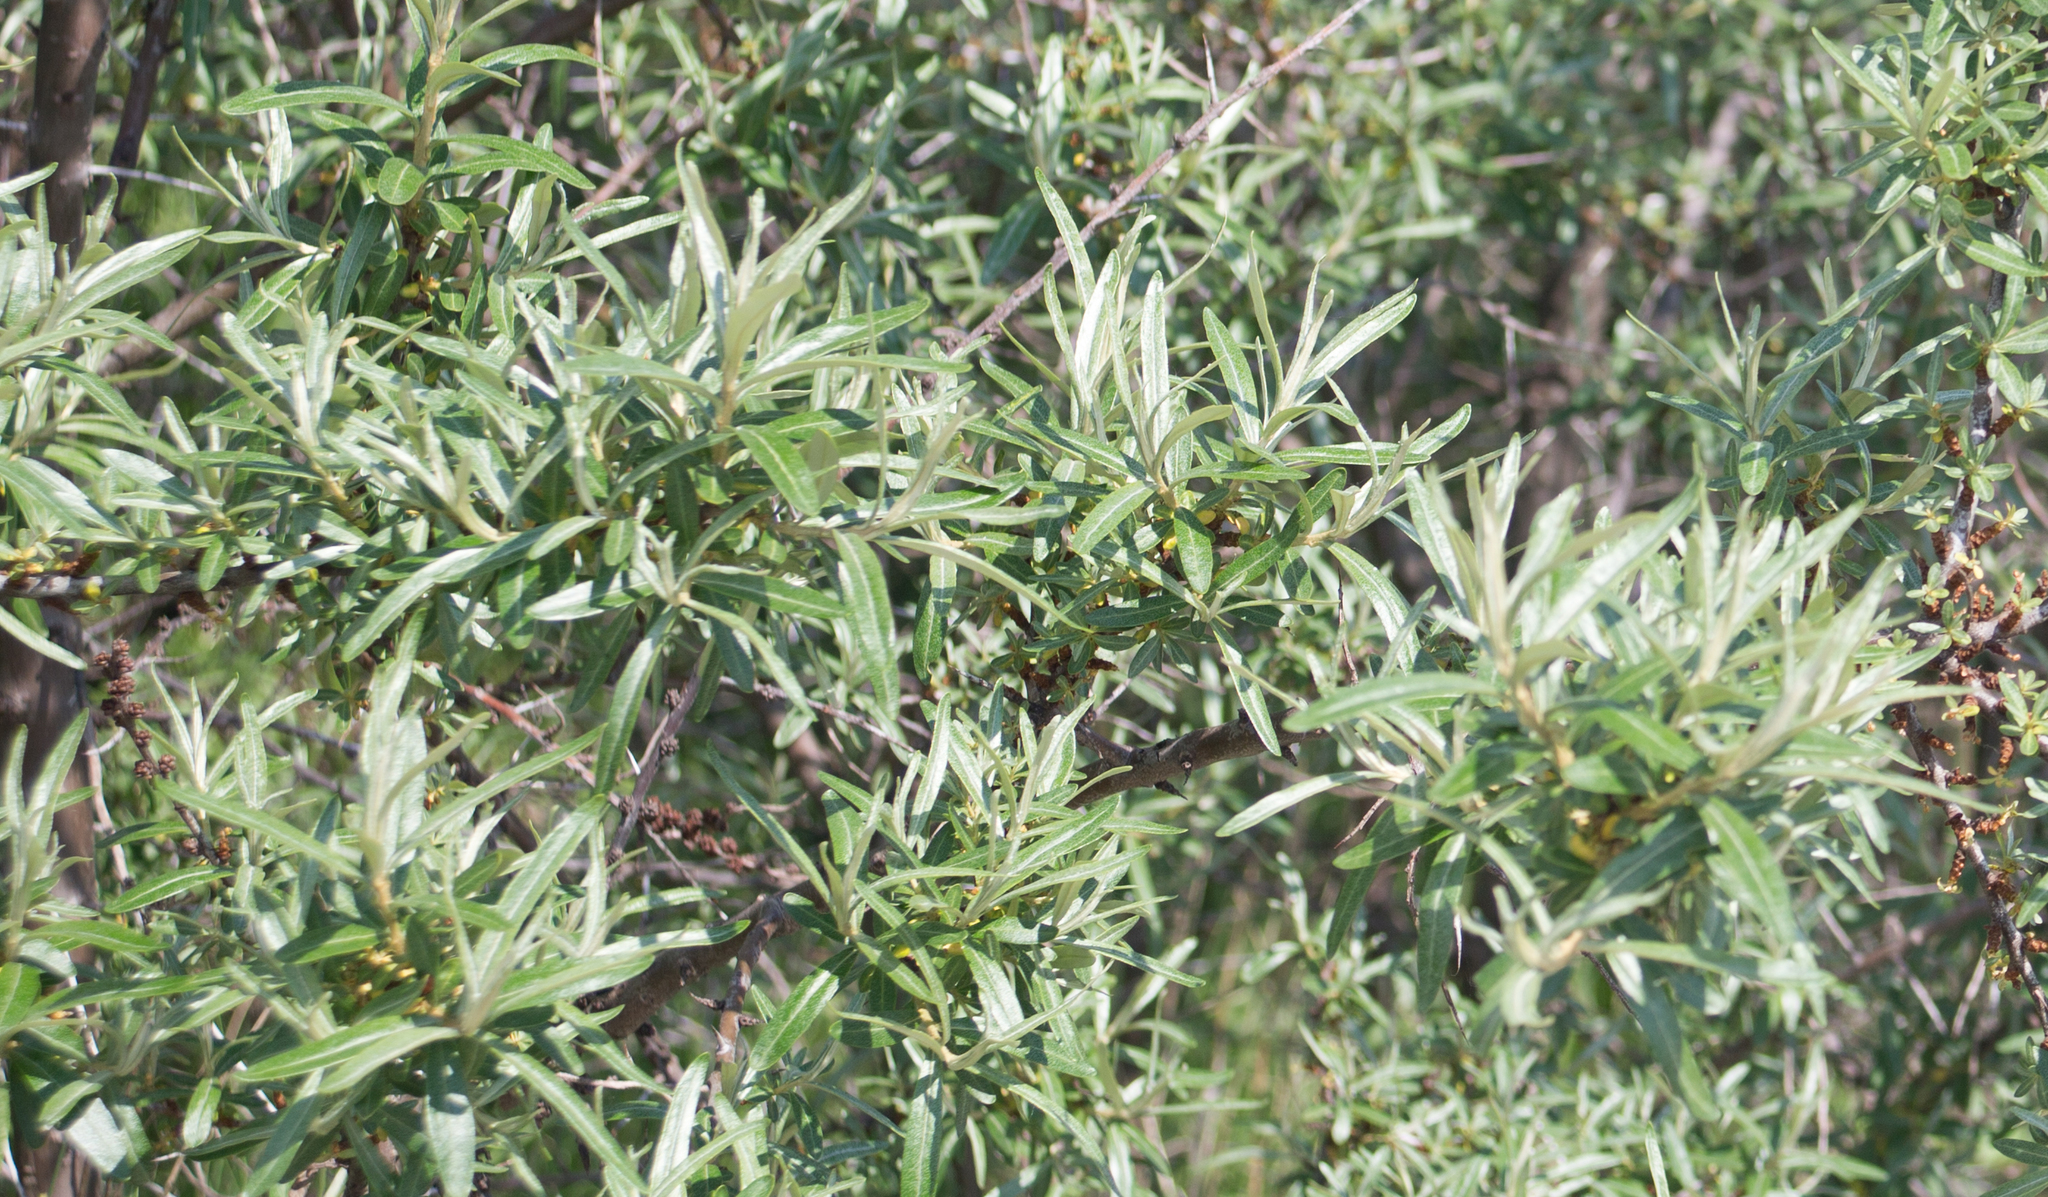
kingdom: Plantae
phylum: Tracheophyta
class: Magnoliopsida
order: Rosales
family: Elaeagnaceae
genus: Hippophae
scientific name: Hippophae rhamnoides
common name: Sea-buckthorn
